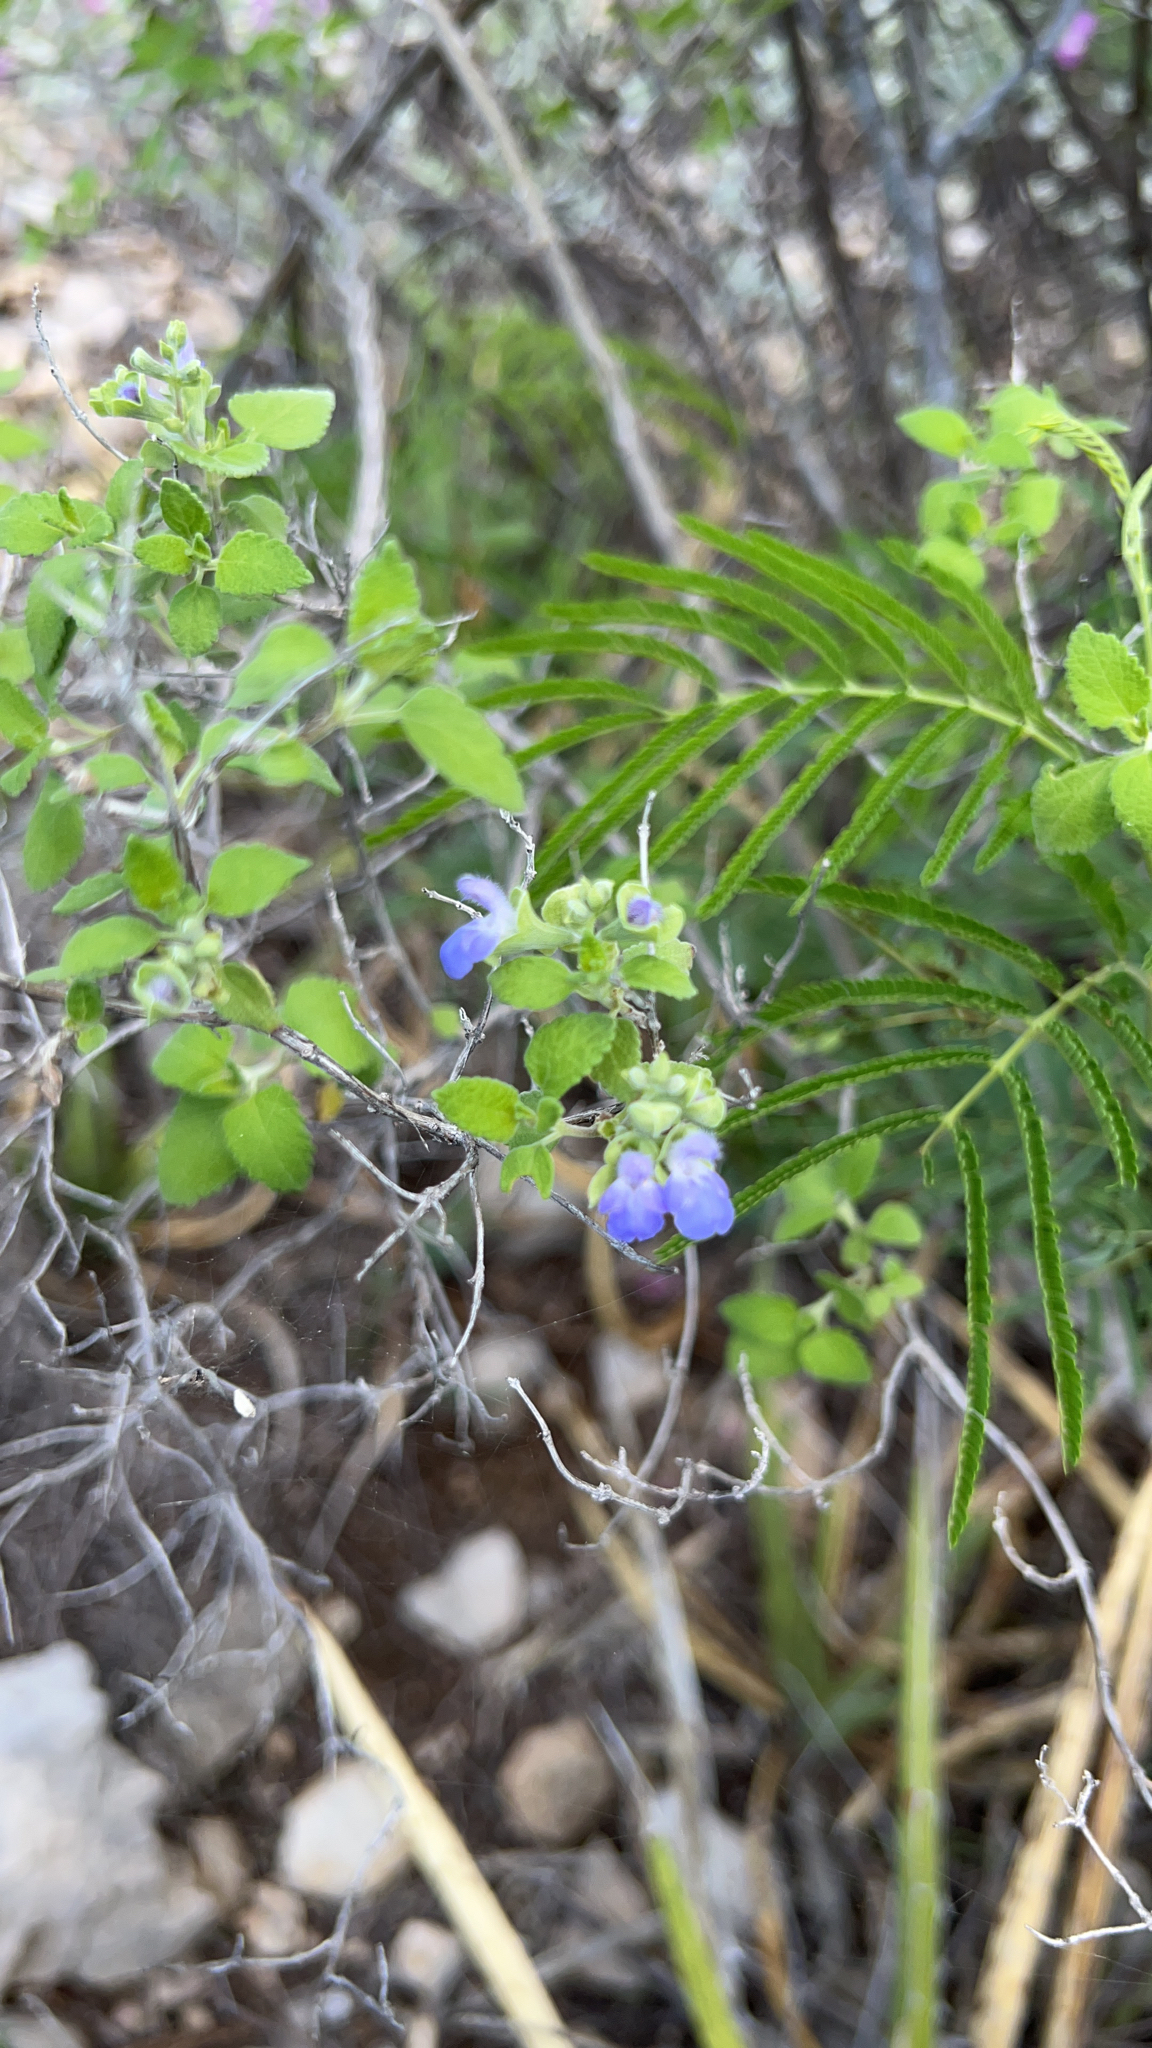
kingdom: Plantae
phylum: Tracheophyta
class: Magnoliopsida
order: Lamiales
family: Lamiaceae
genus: Salvia
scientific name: Salvia ballotiflora
